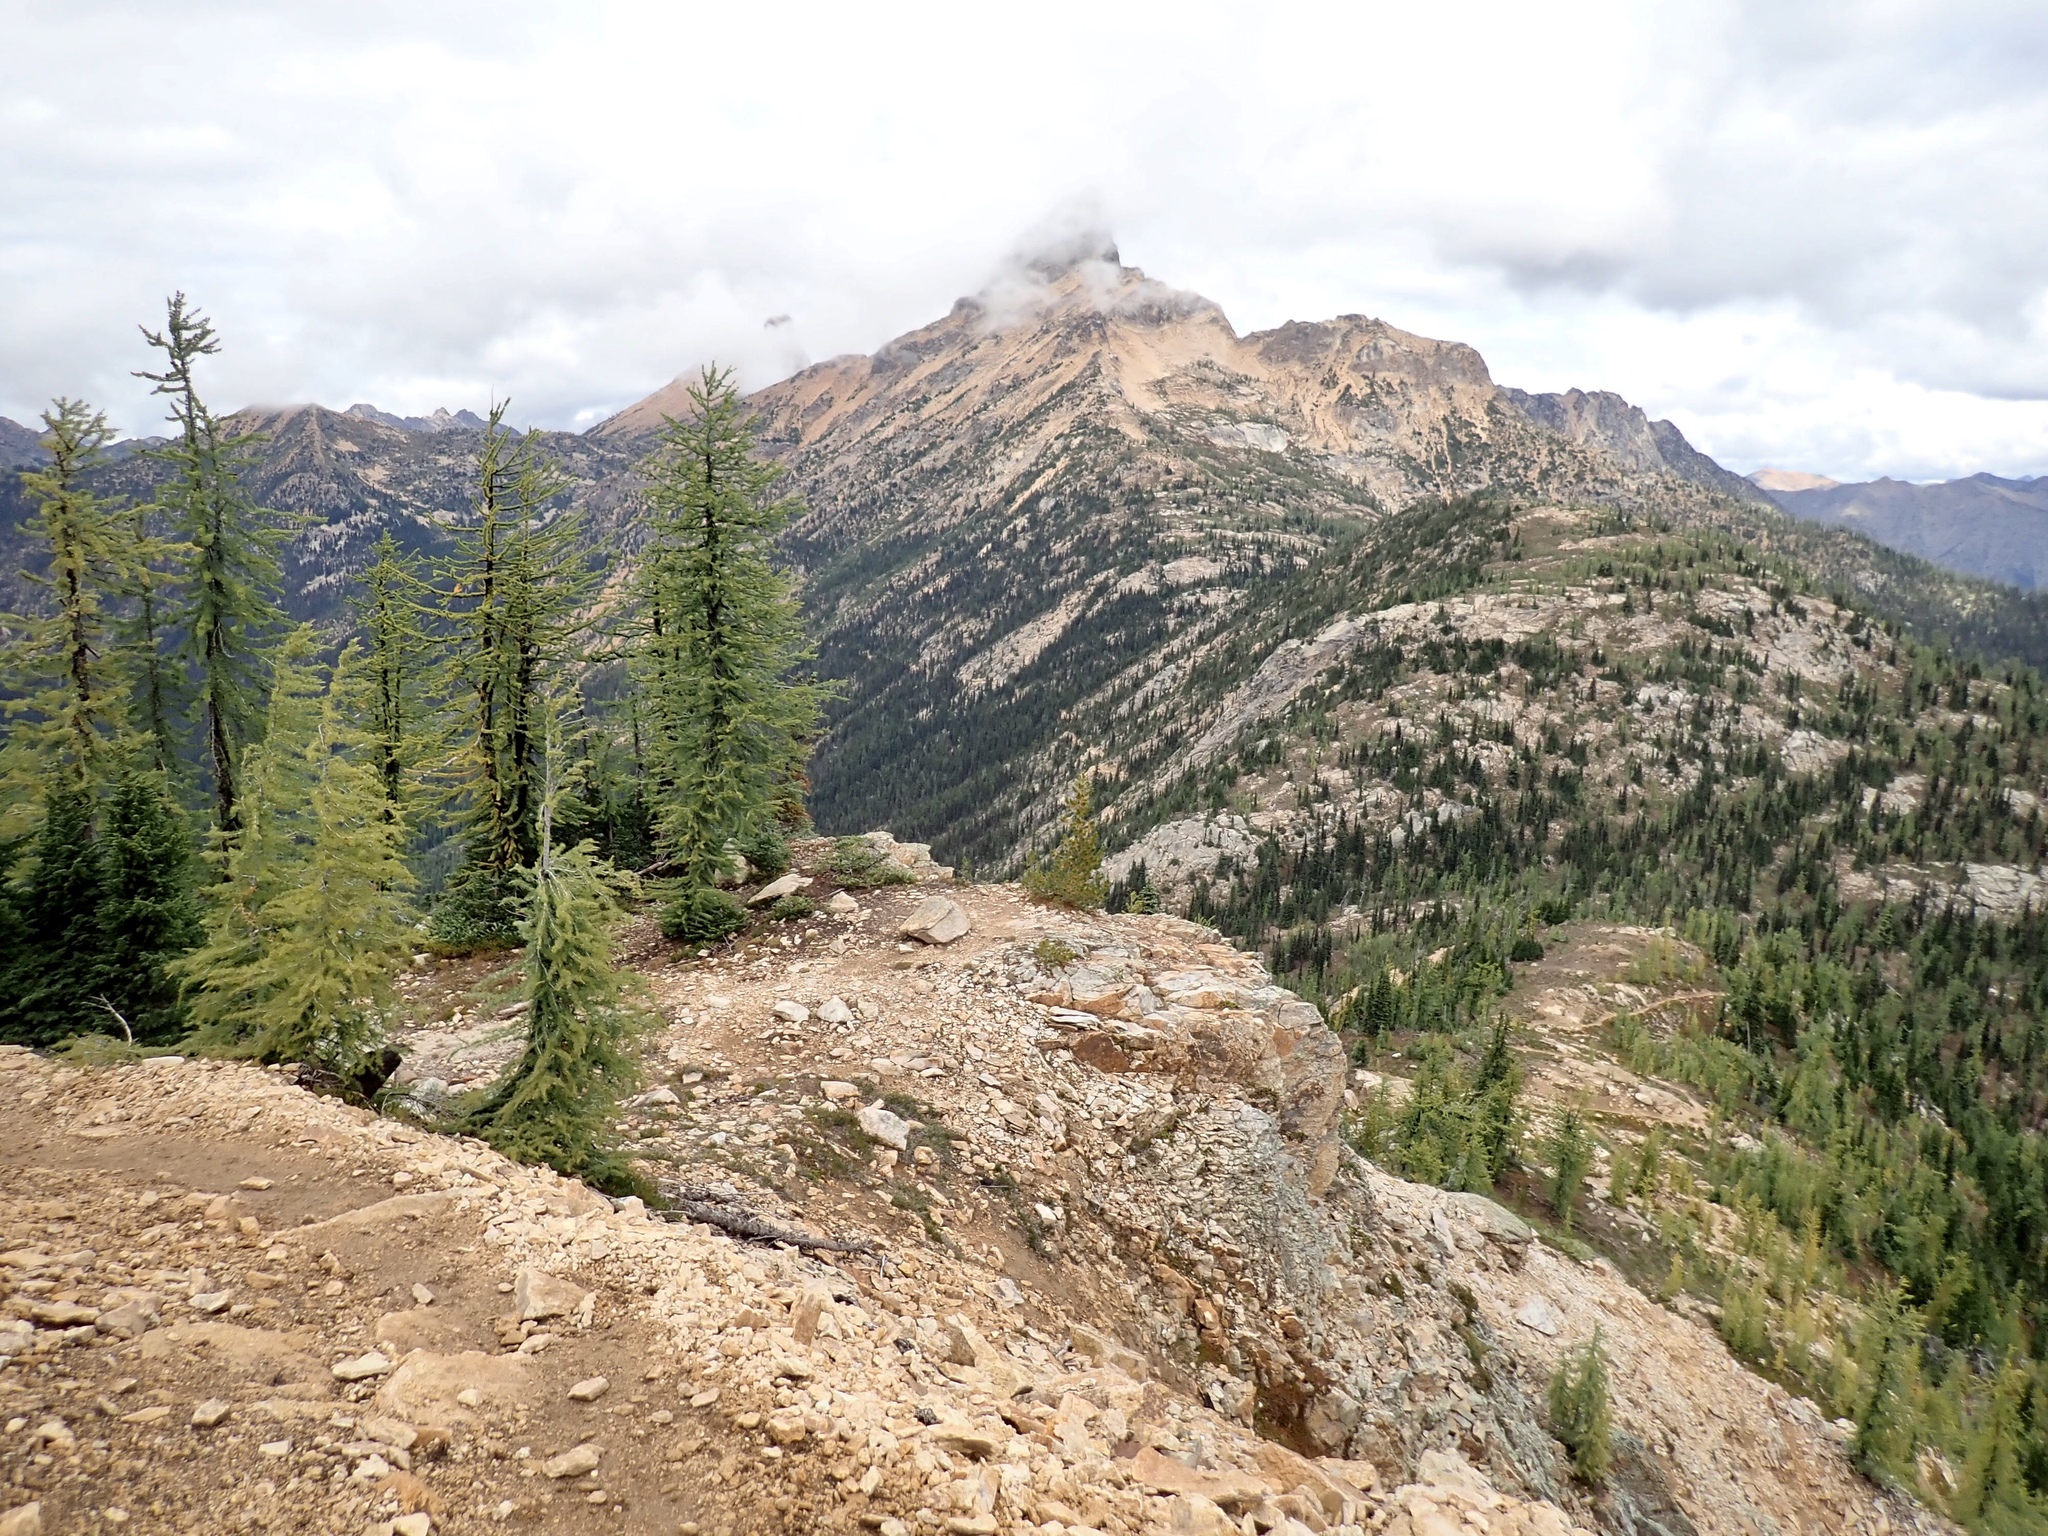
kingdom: Plantae
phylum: Tracheophyta
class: Pinopsida
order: Pinales
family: Pinaceae
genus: Larix
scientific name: Larix lyallii
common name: Alpine larch
